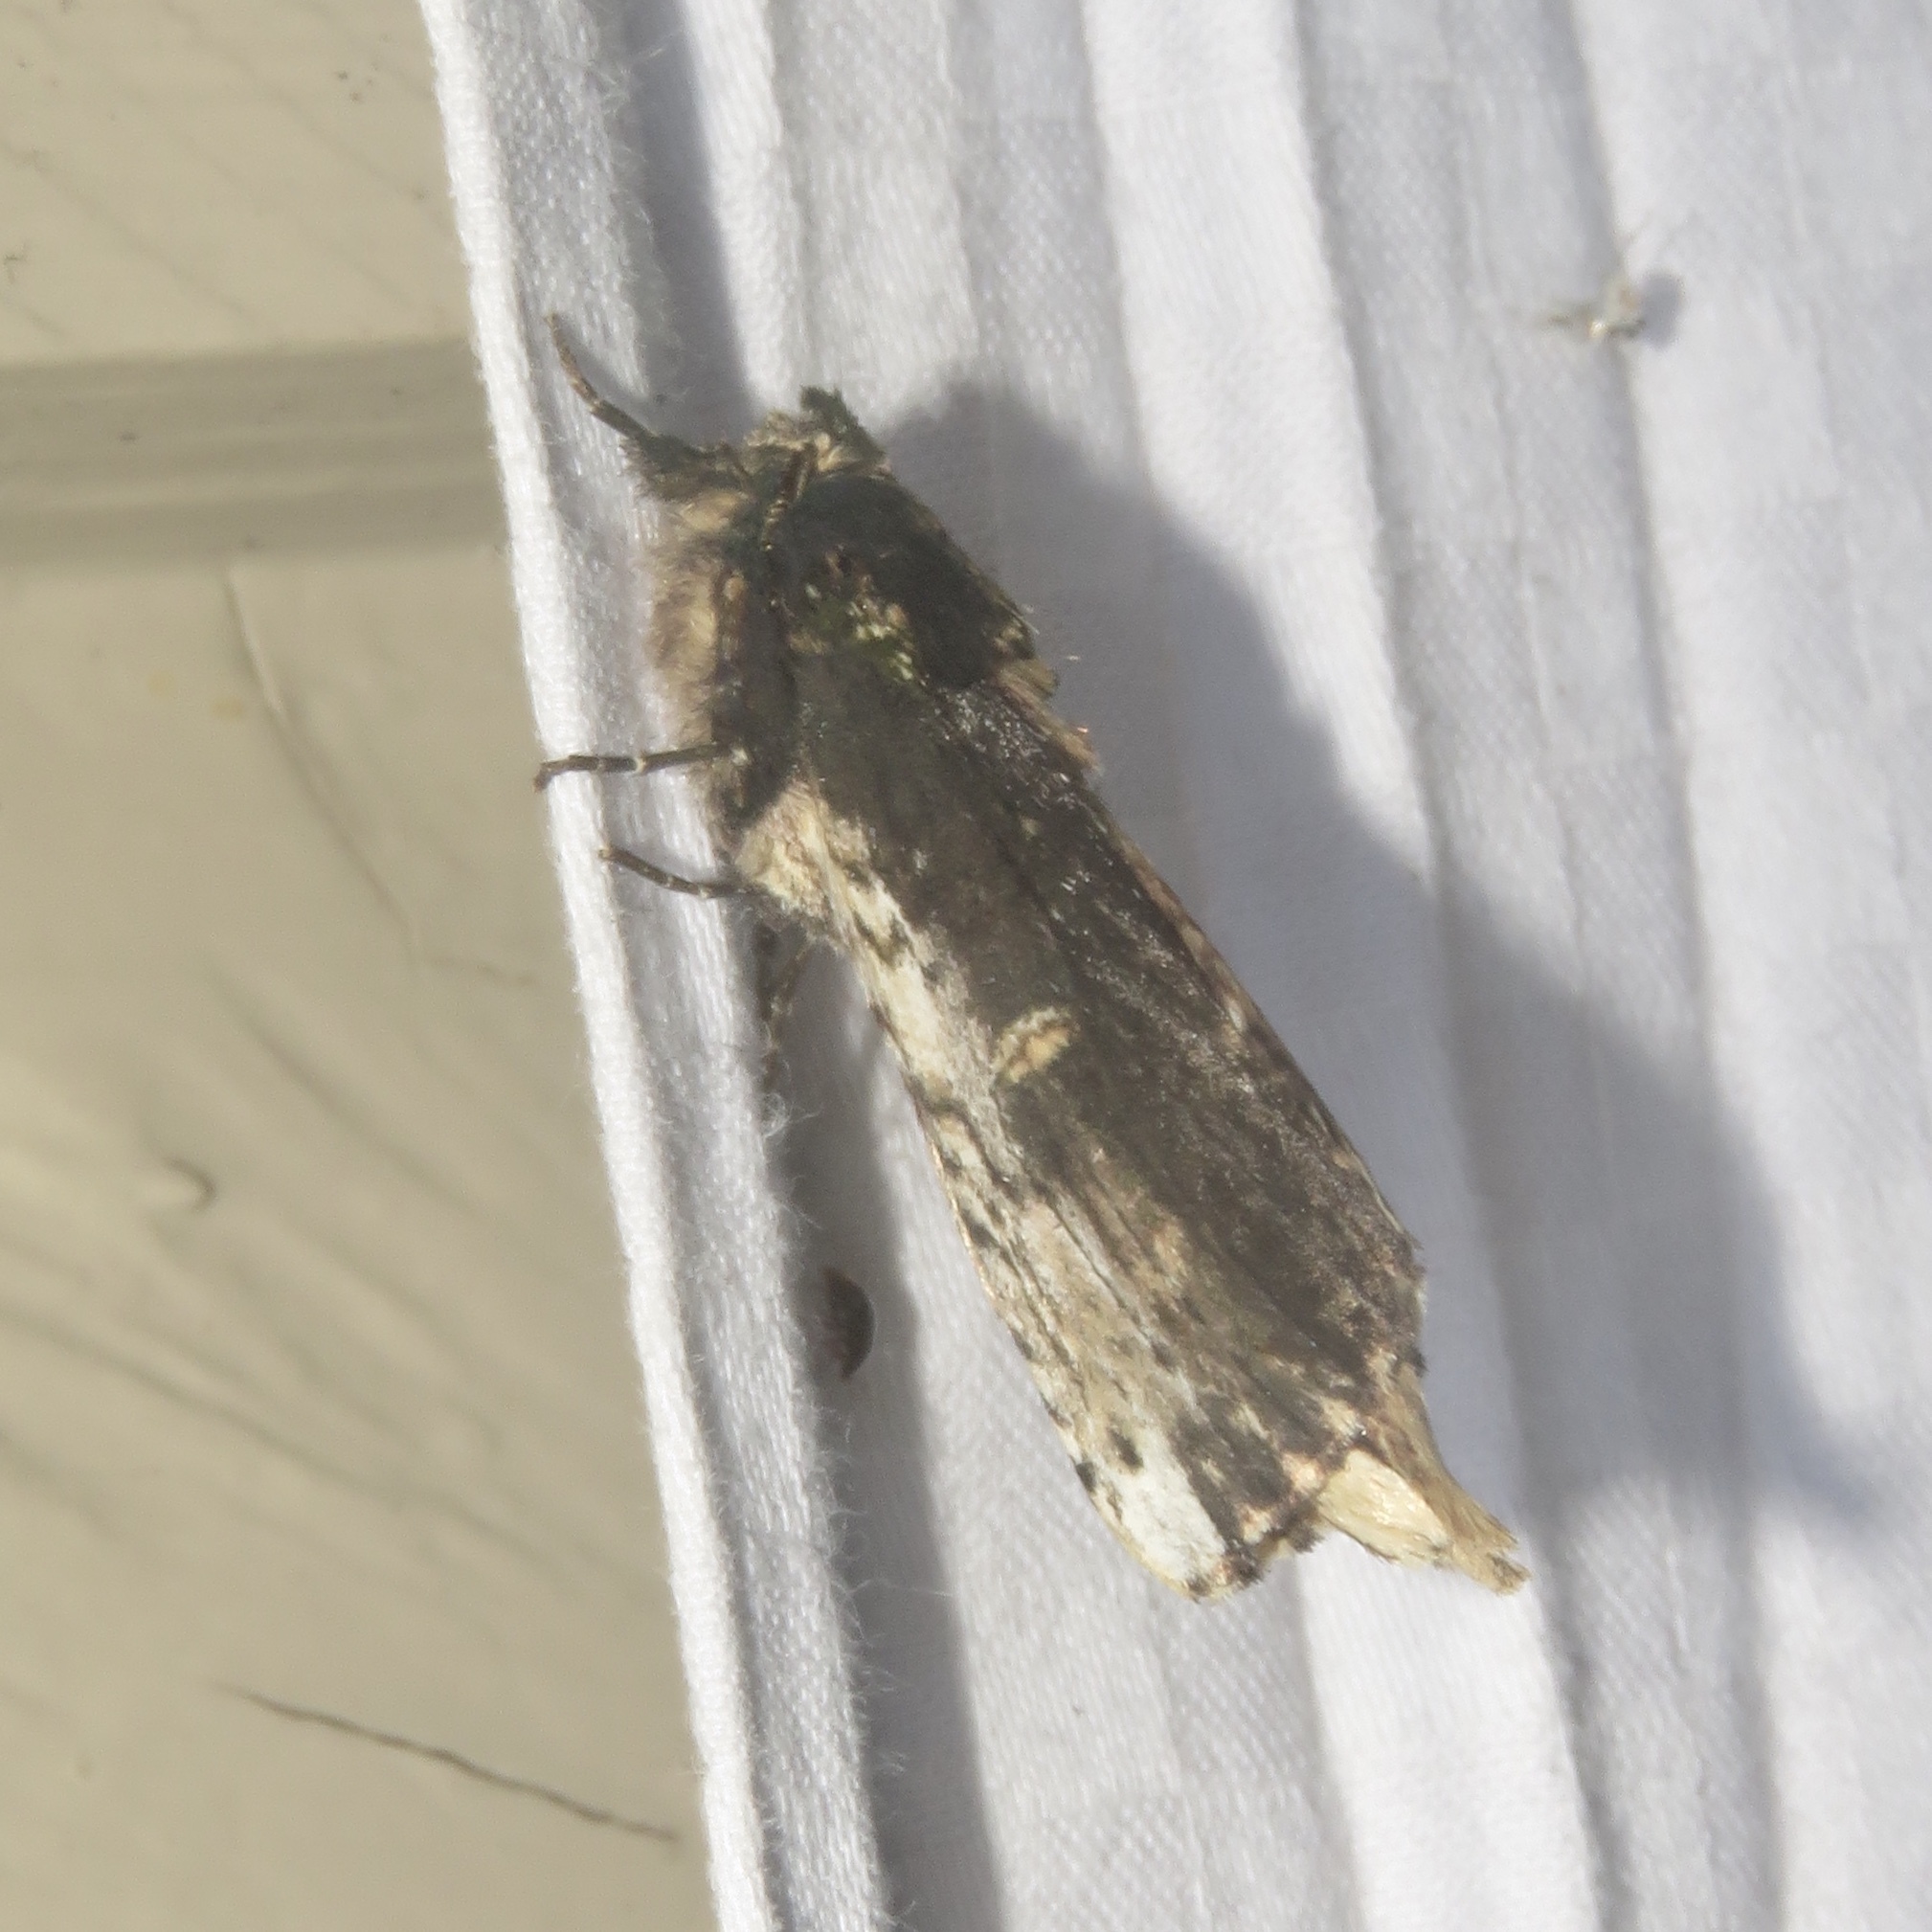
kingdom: Animalia
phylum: Arthropoda
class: Insecta
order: Lepidoptera
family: Notodontidae
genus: Schizura
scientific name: Schizura ipomaeae
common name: Morning-glory prominent
